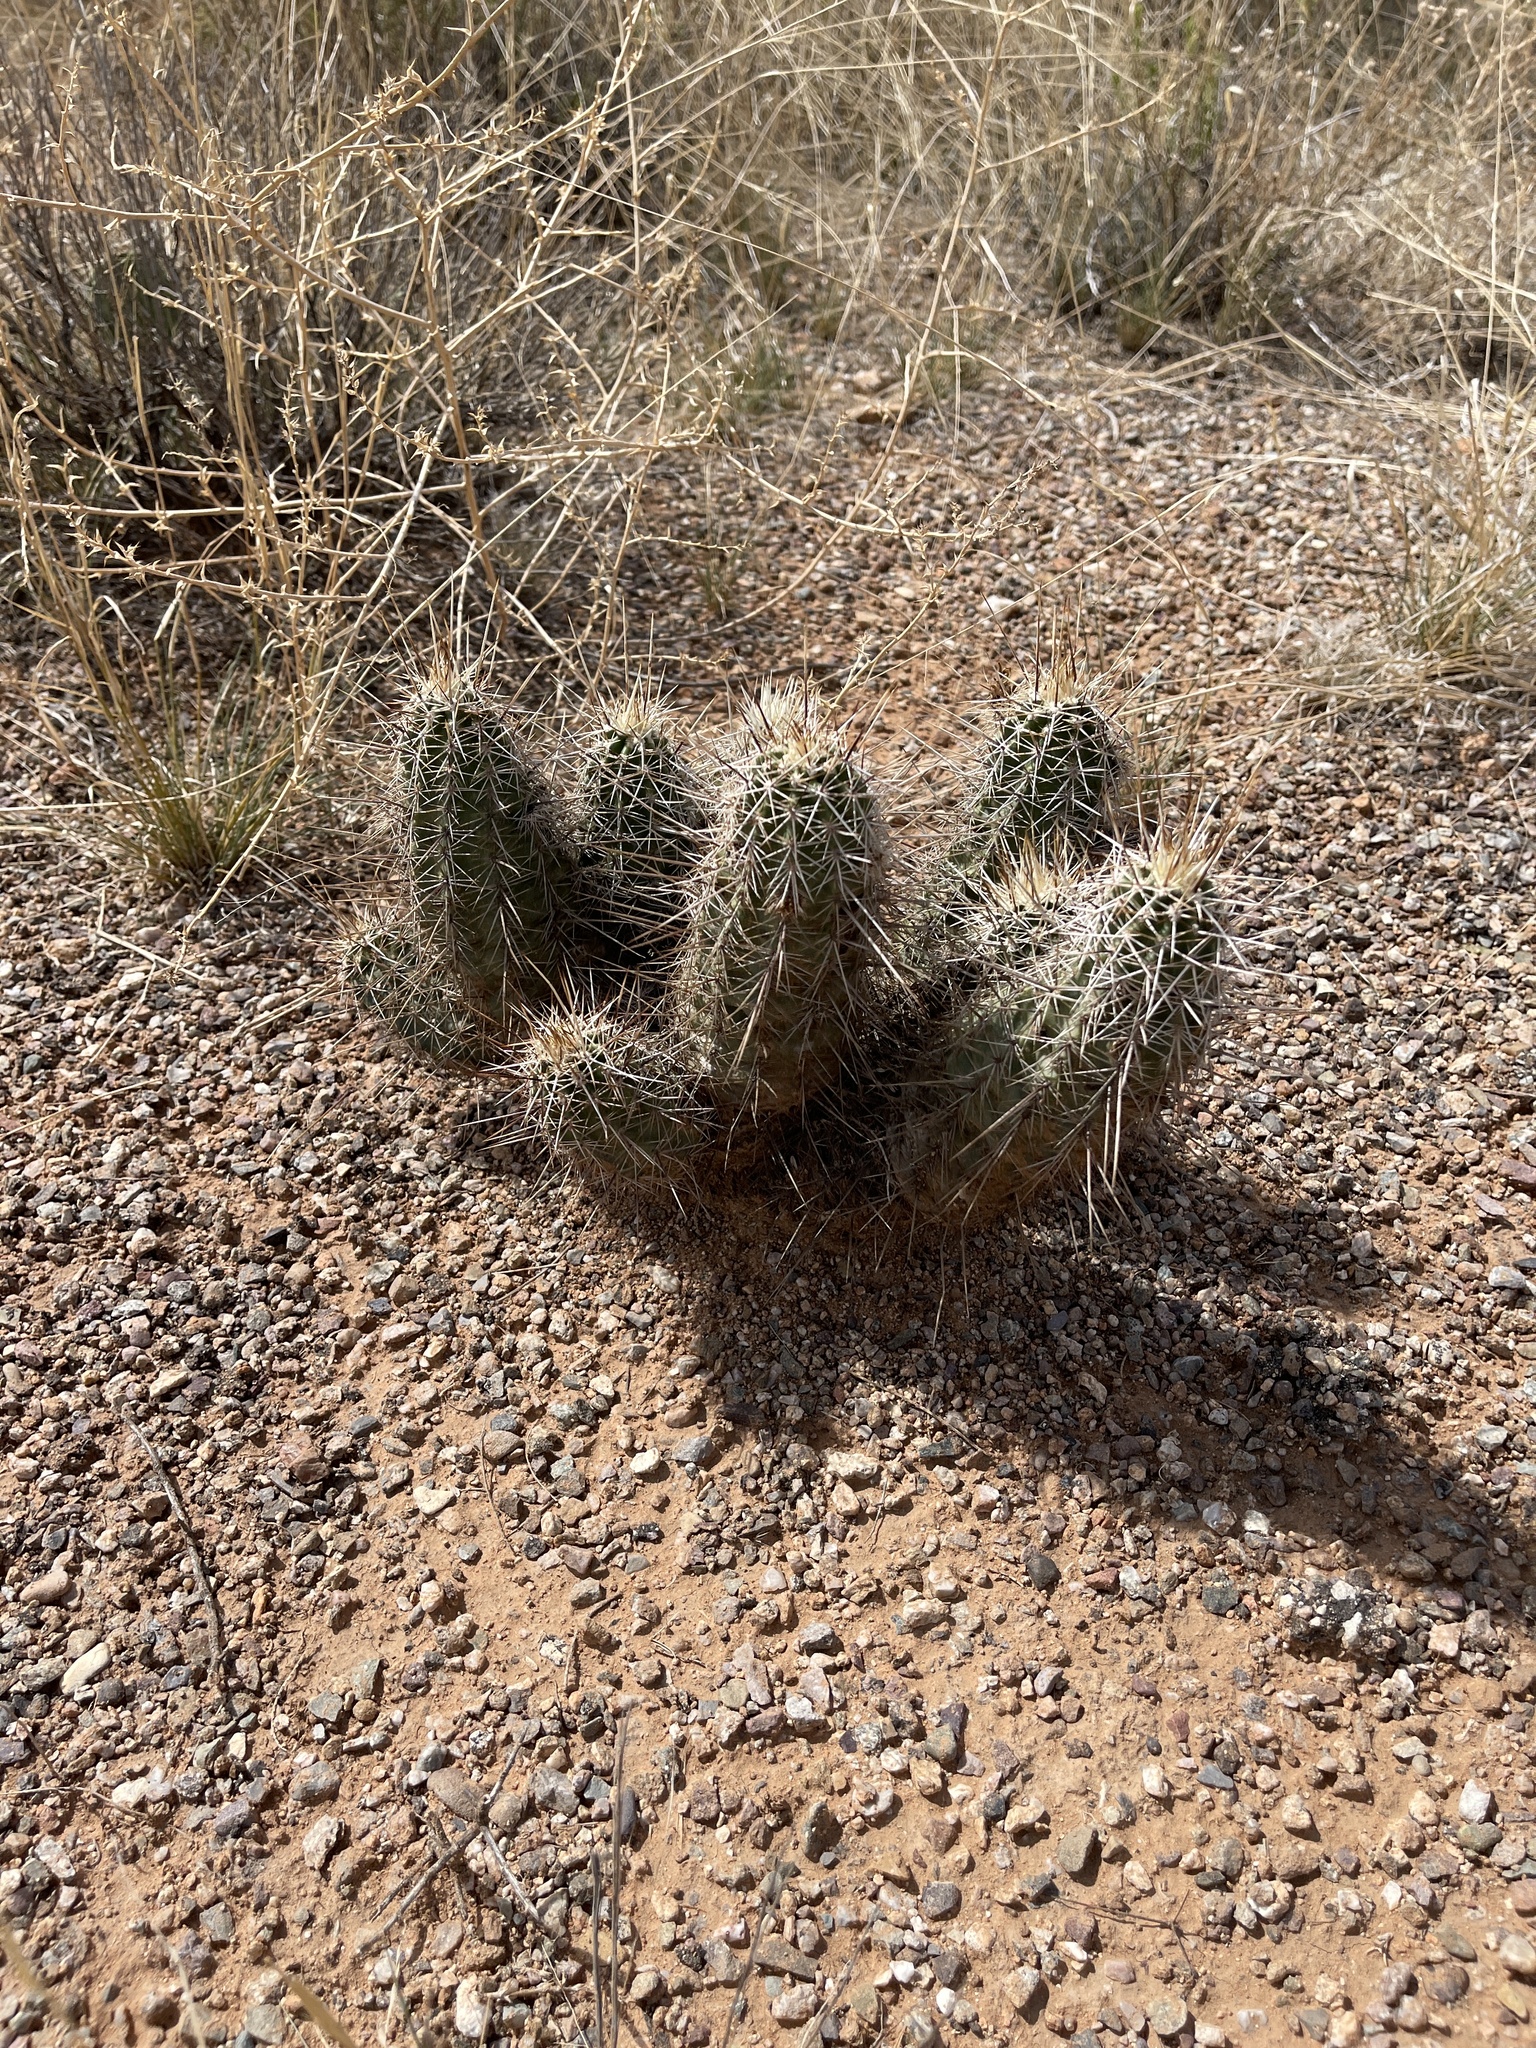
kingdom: Plantae
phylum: Tracheophyta
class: Magnoliopsida
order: Caryophyllales
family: Cactaceae
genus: Echinocereus
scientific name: Echinocereus fasciculatus
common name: Bundle hedgehog
